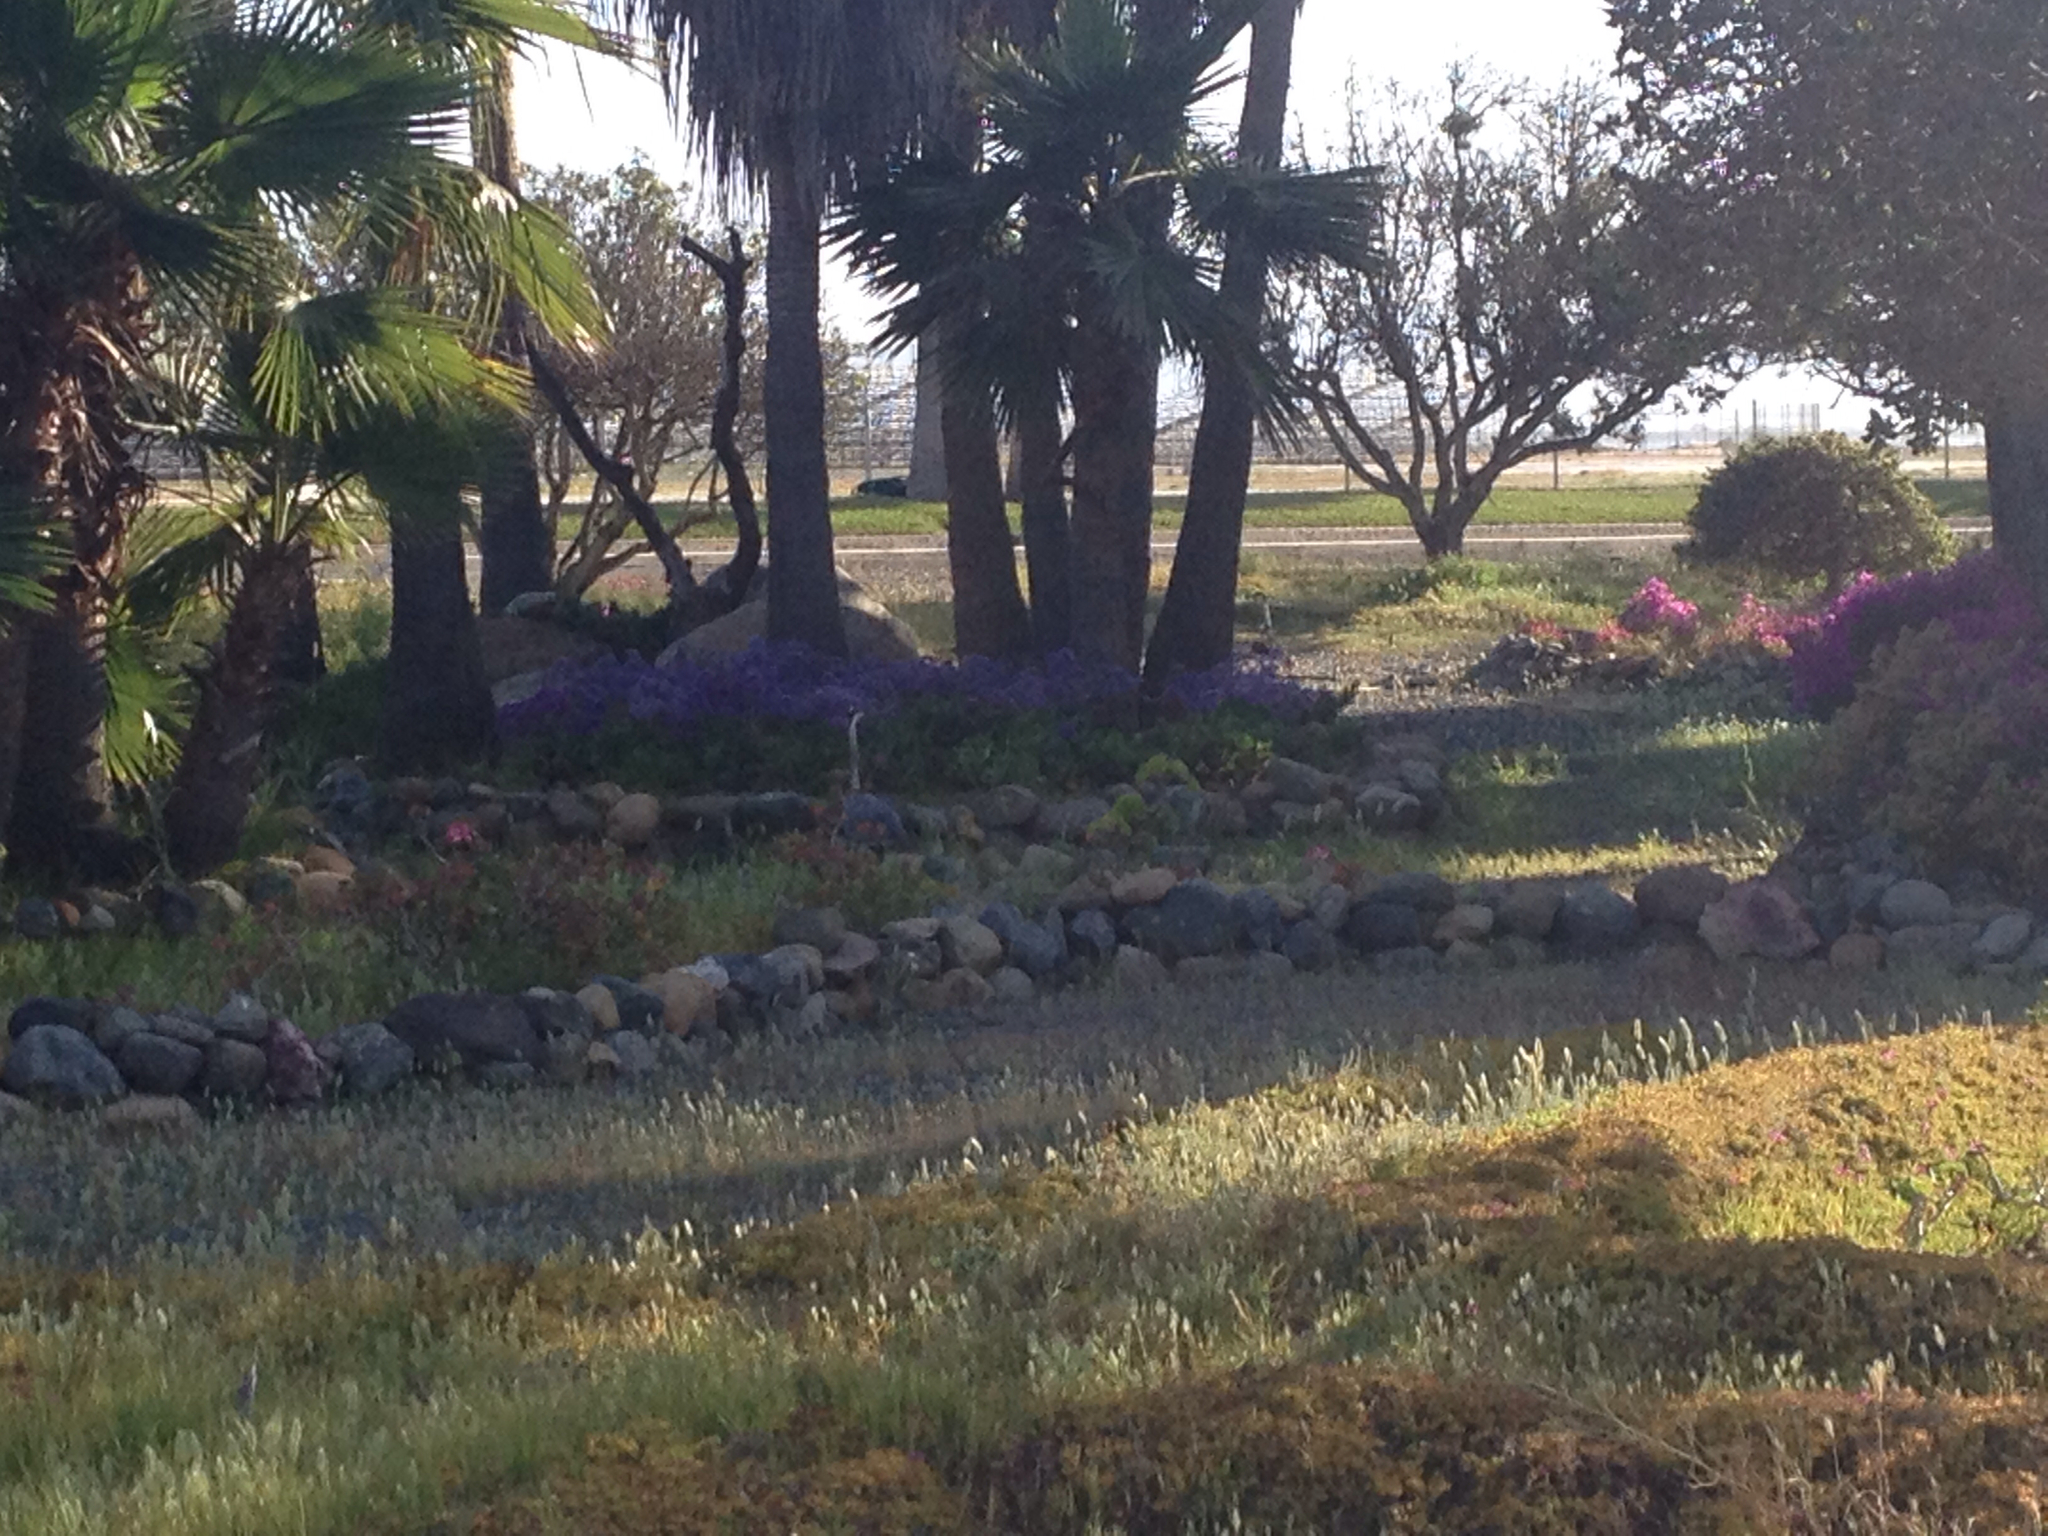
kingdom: Animalia
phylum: Chordata
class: Aves
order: Pelecaniformes
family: Ardeidae
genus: Ardea
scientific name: Ardea herodias
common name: Great blue heron
